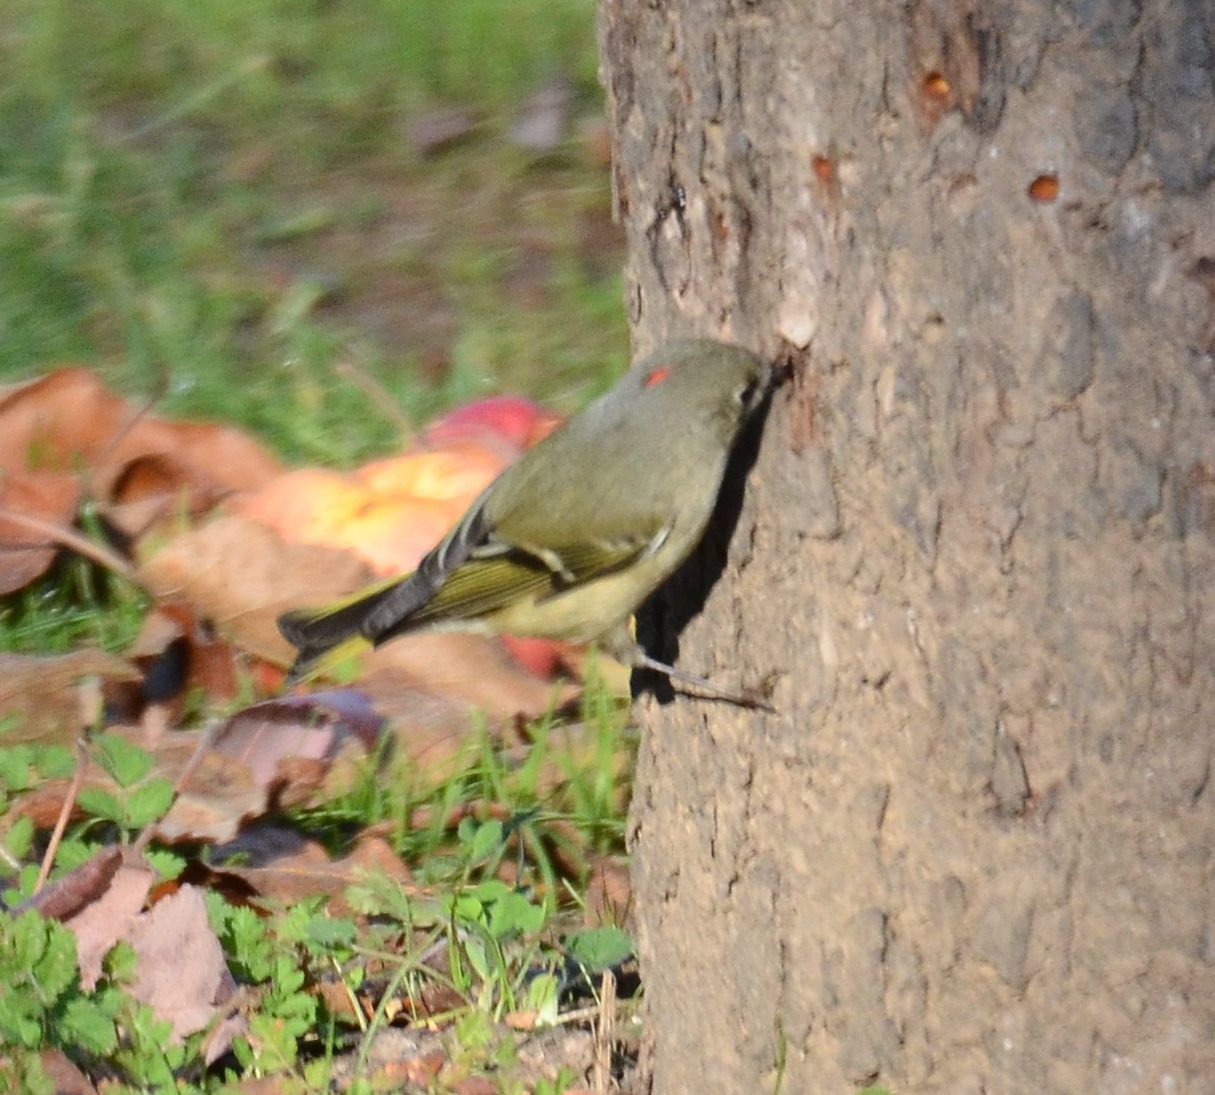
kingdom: Animalia
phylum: Chordata
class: Aves
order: Passeriformes
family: Regulidae
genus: Regulus
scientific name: Regulus calendula
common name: Ruby-crowned kinglet
